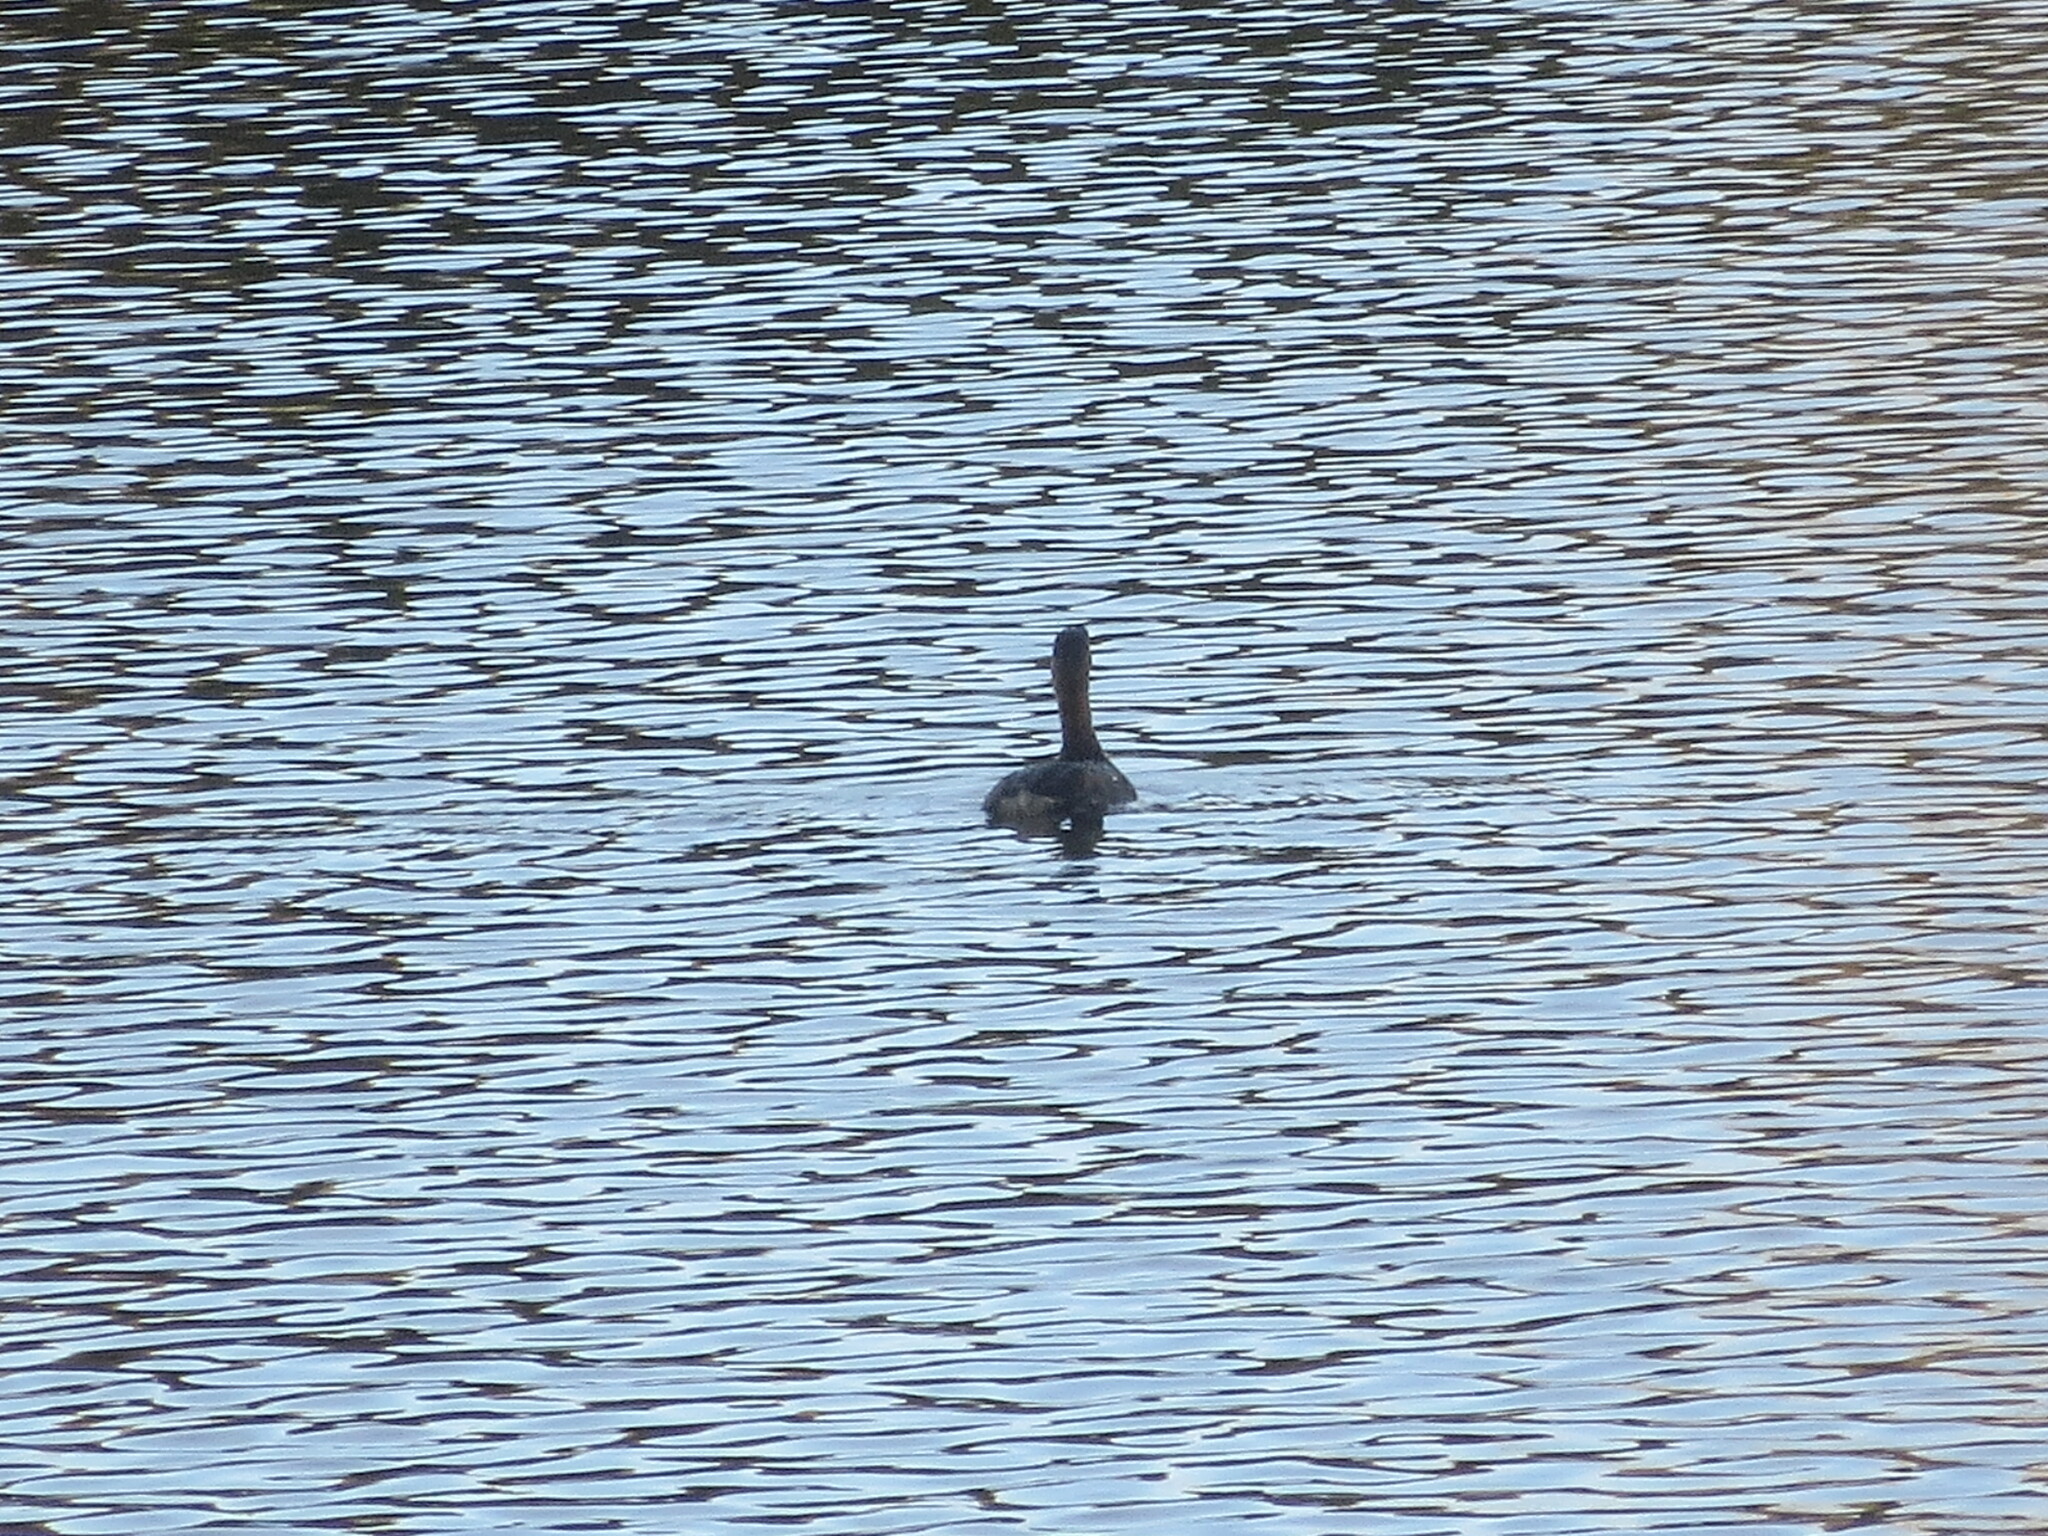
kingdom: Animalia
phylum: Chordata
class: Aves
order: Podicipediformes
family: Podicipedidae
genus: Podilymbus
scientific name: Podilymbus podiceps
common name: Pied-billed grebe
